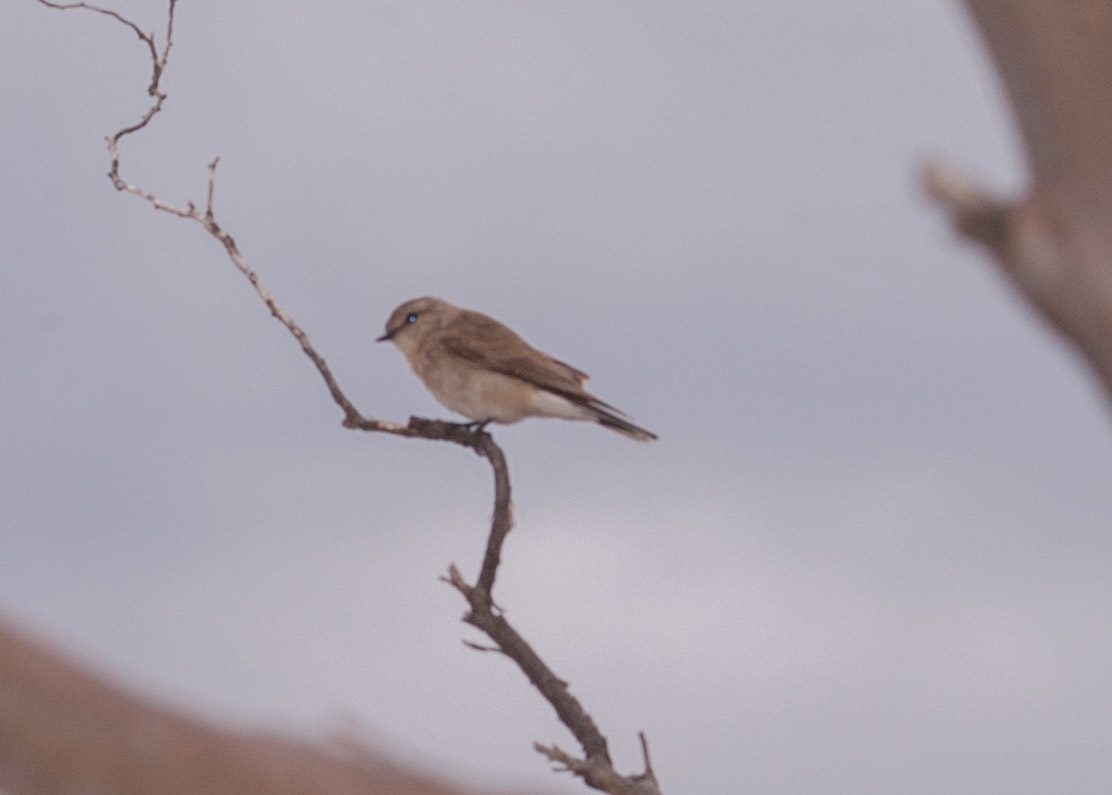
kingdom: Animalia
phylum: Chordata
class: Aves
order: Passeriformes
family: Petroicidae
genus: Microeca
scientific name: Microeca fascinans
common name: Jacky winter
